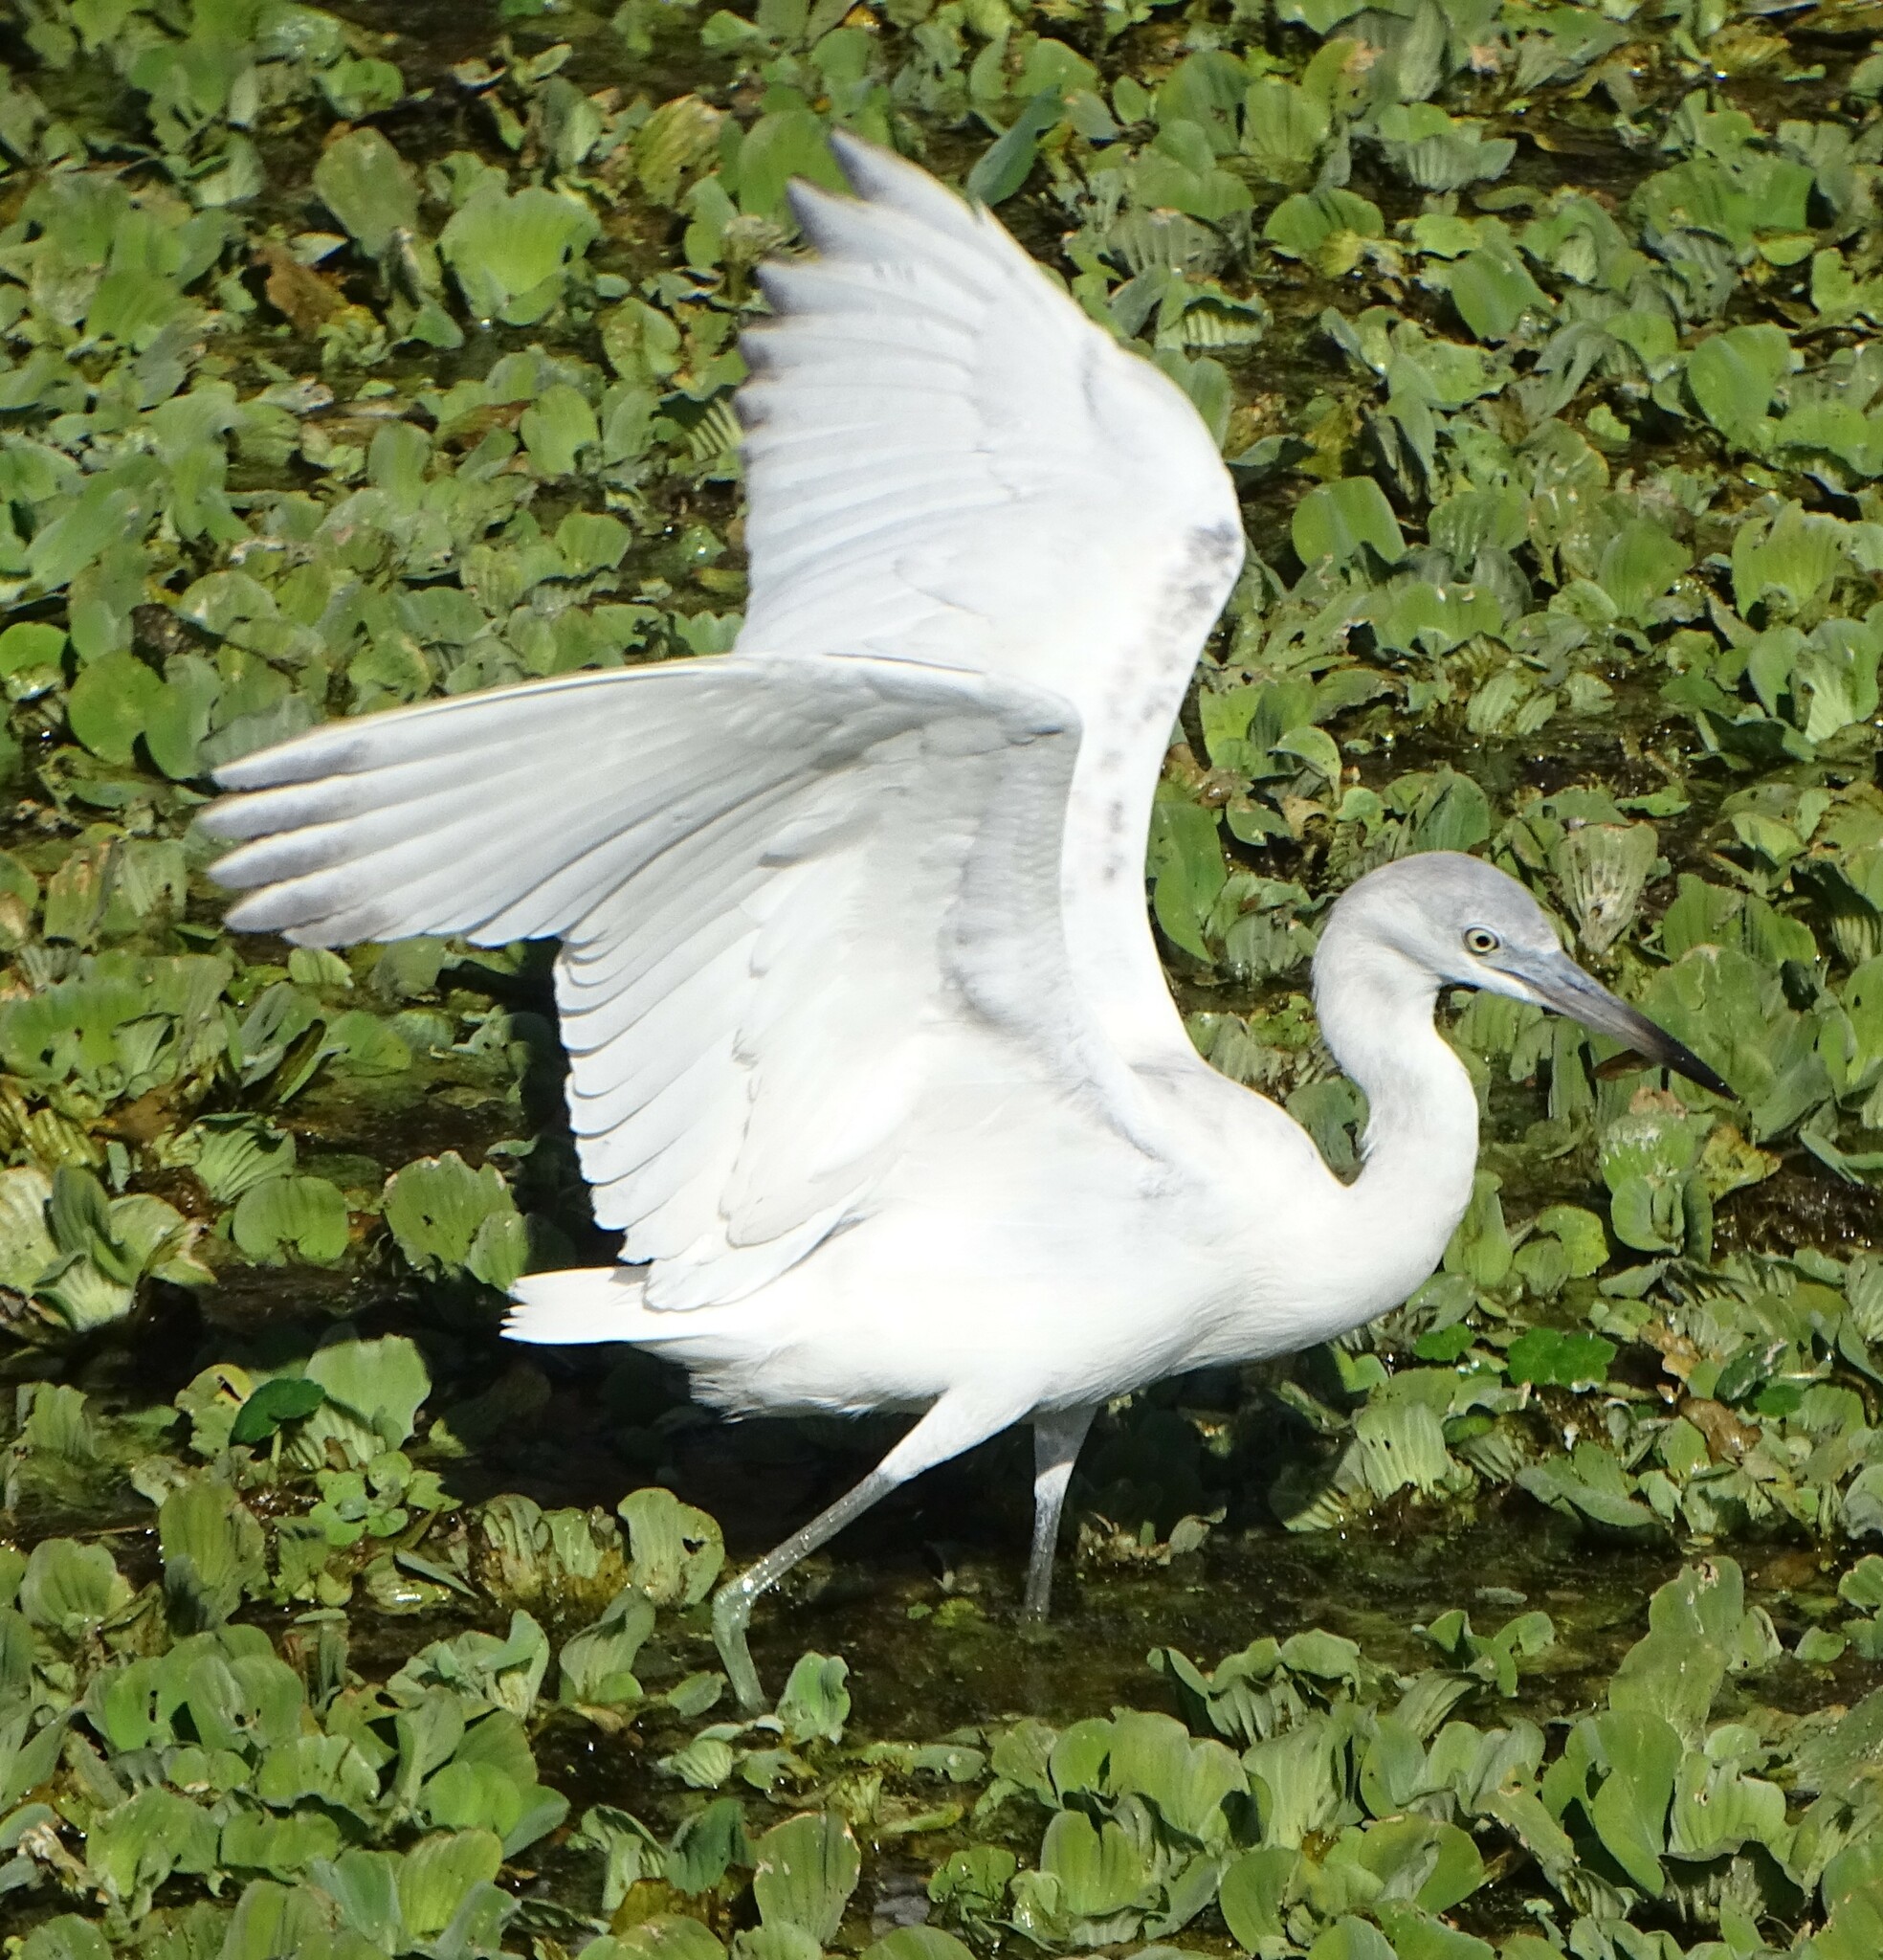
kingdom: Animalia
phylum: Chordata
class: Aves
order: Pelecaniformes
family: Ardeidae
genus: Egretta
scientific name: Egretta caerulea
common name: Little blue heron
